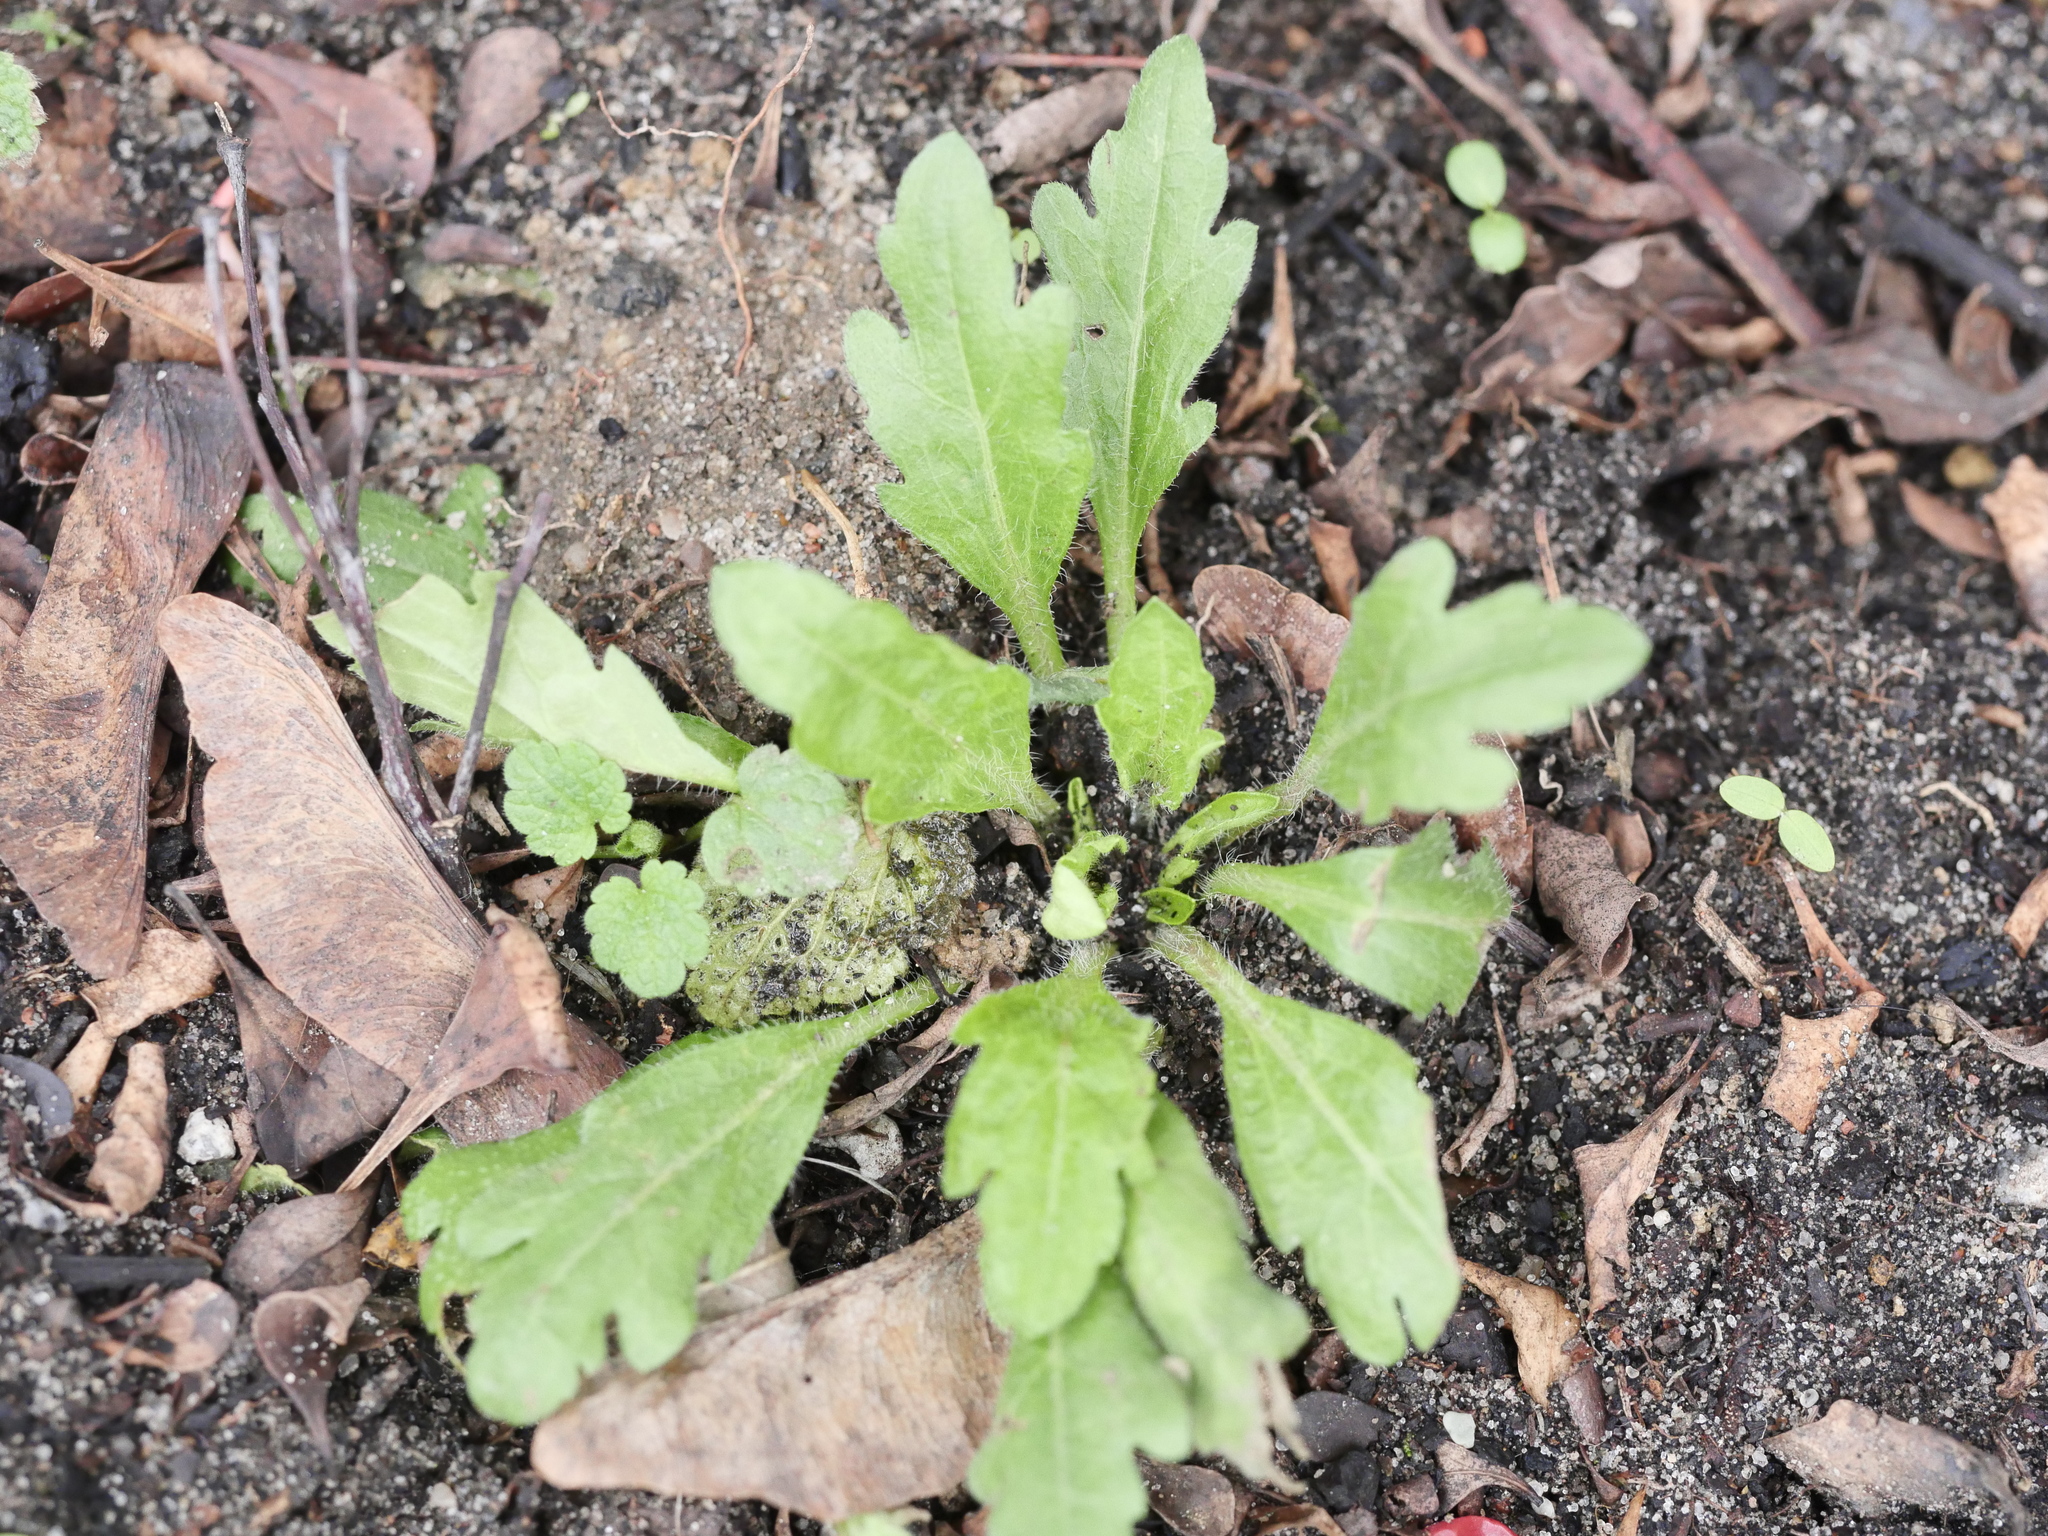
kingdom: Plantae
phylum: Tracheophyta
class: Magnoliopsida
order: Asterales
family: Asteraceae
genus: Erigeron
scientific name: Erigeron canadensis
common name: Canadian fleabane
